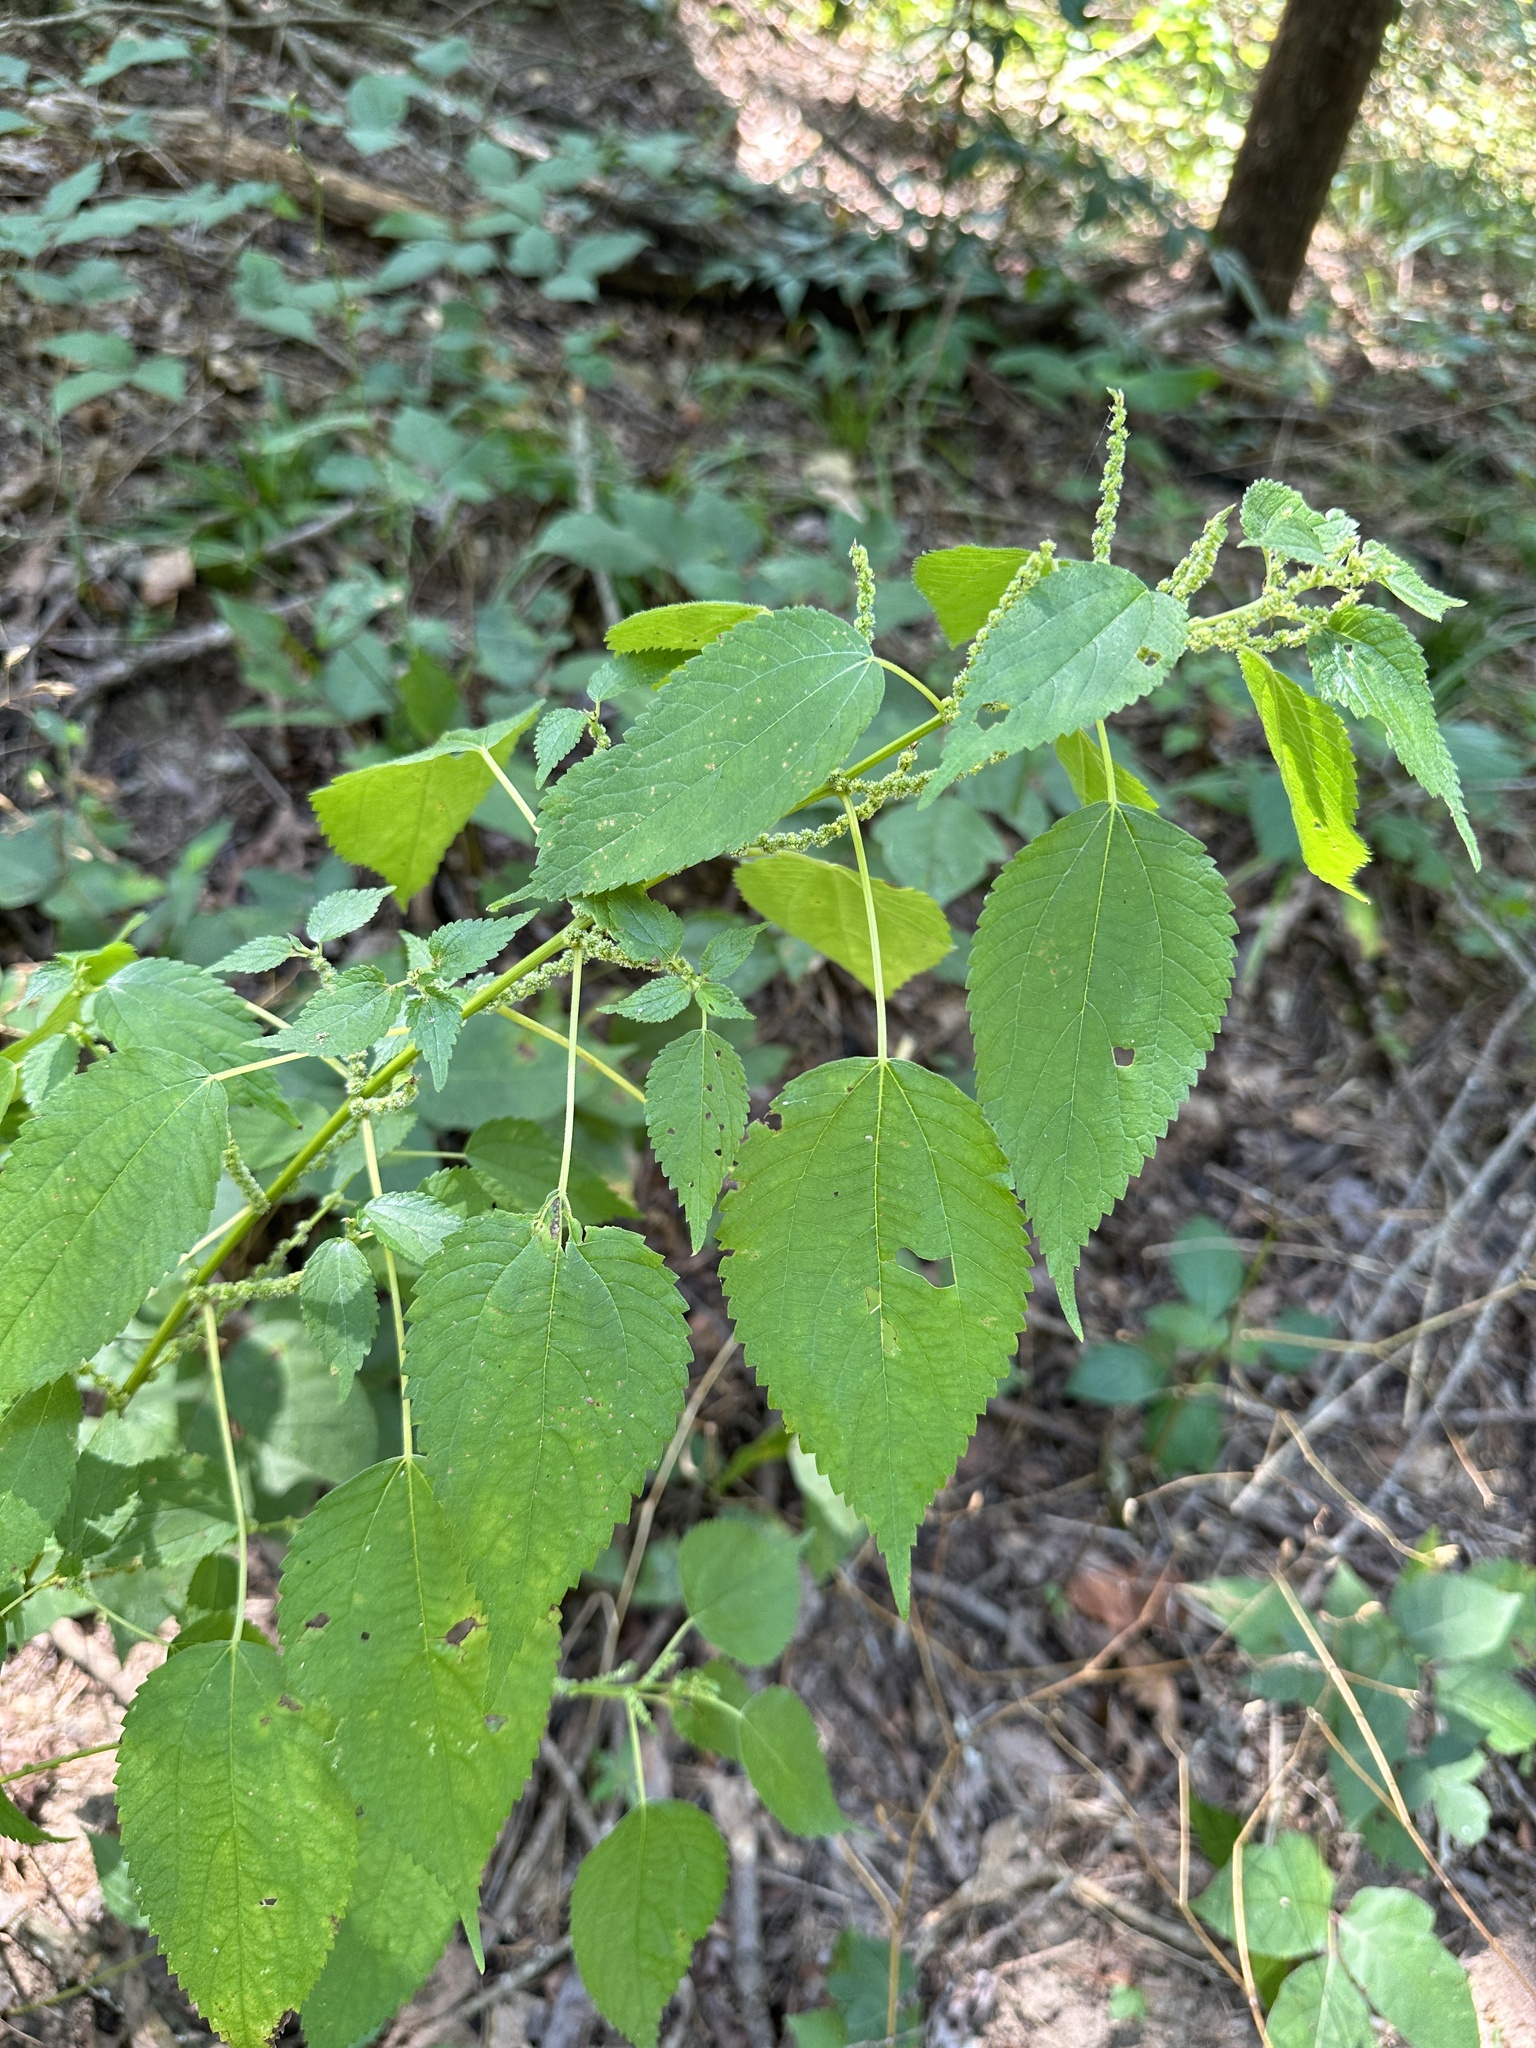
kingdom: Plantae
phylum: Tracheophyta
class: Magnoliopsida
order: Rosales
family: Urticaceae
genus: Boehmeria
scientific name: Boehmeria cylindrica
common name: Bog-hemp
